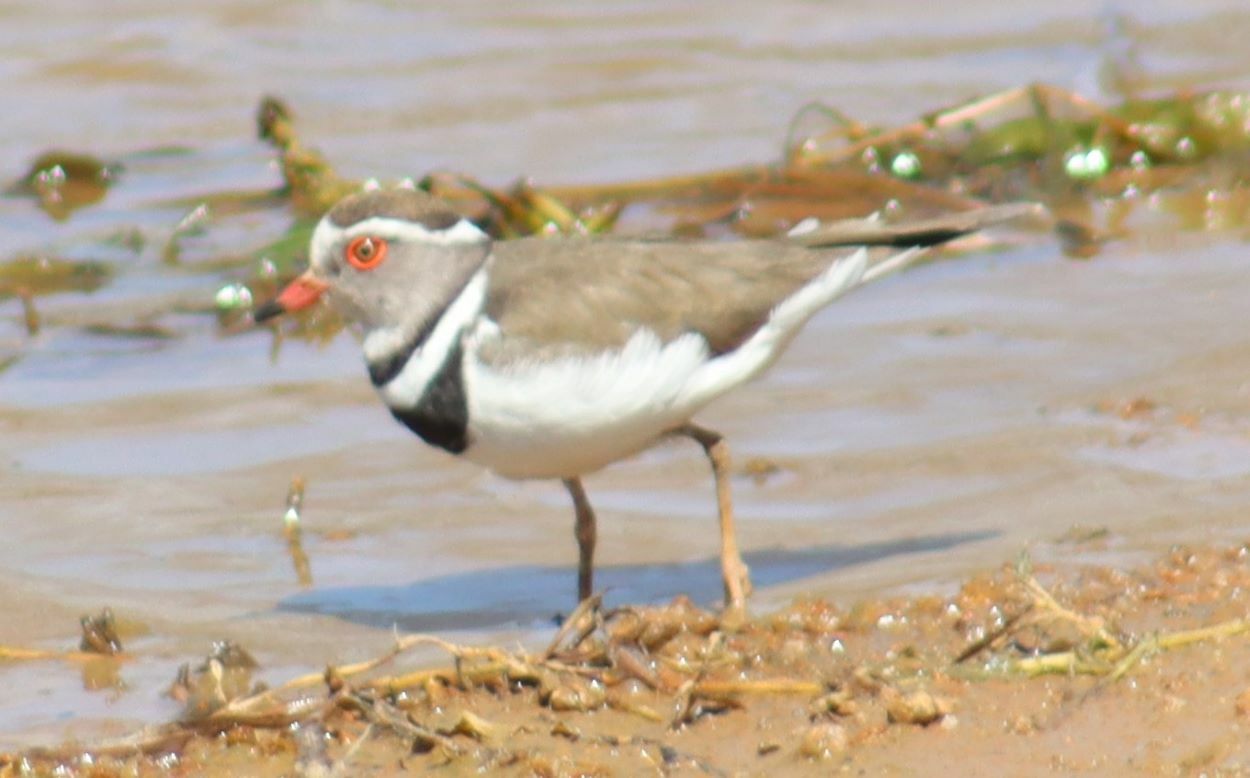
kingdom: Animalia
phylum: Chordata
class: Aves
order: Charadriiformes
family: Charadriidae
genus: Charadrius
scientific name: Charadrius tricollaris
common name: Three-banded plover
